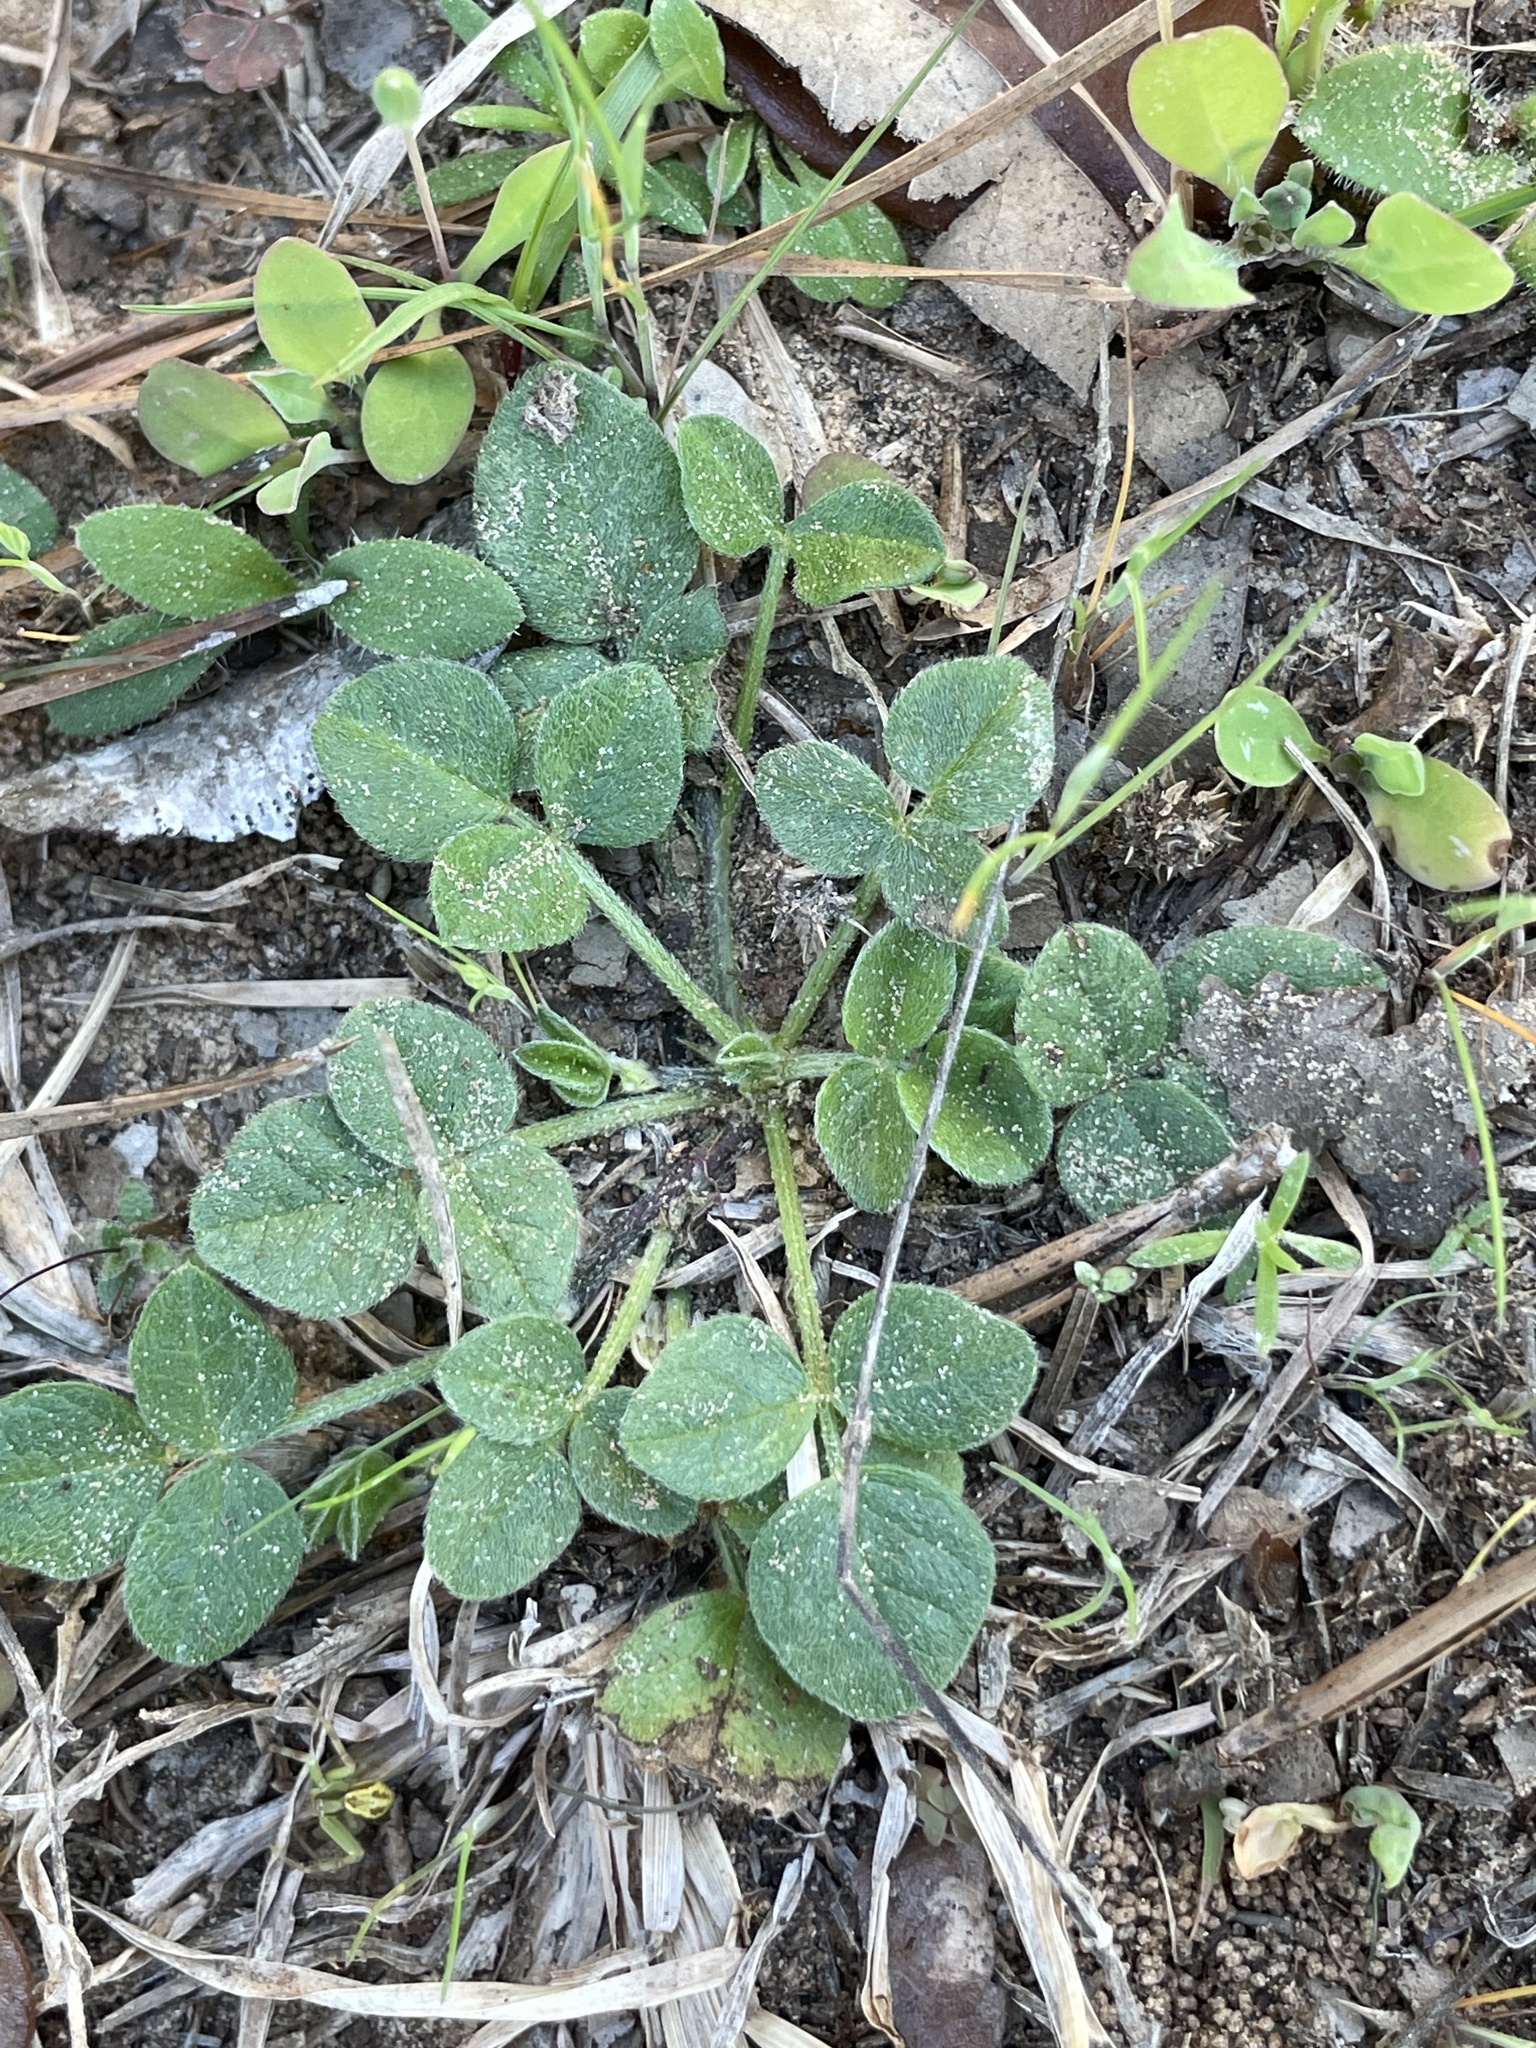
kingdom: Plantae
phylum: Tracheophyta
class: Magnoliopsida
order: Fabales
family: Fabaceae
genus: Pediomelum
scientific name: Pediomelum rhombifolium
